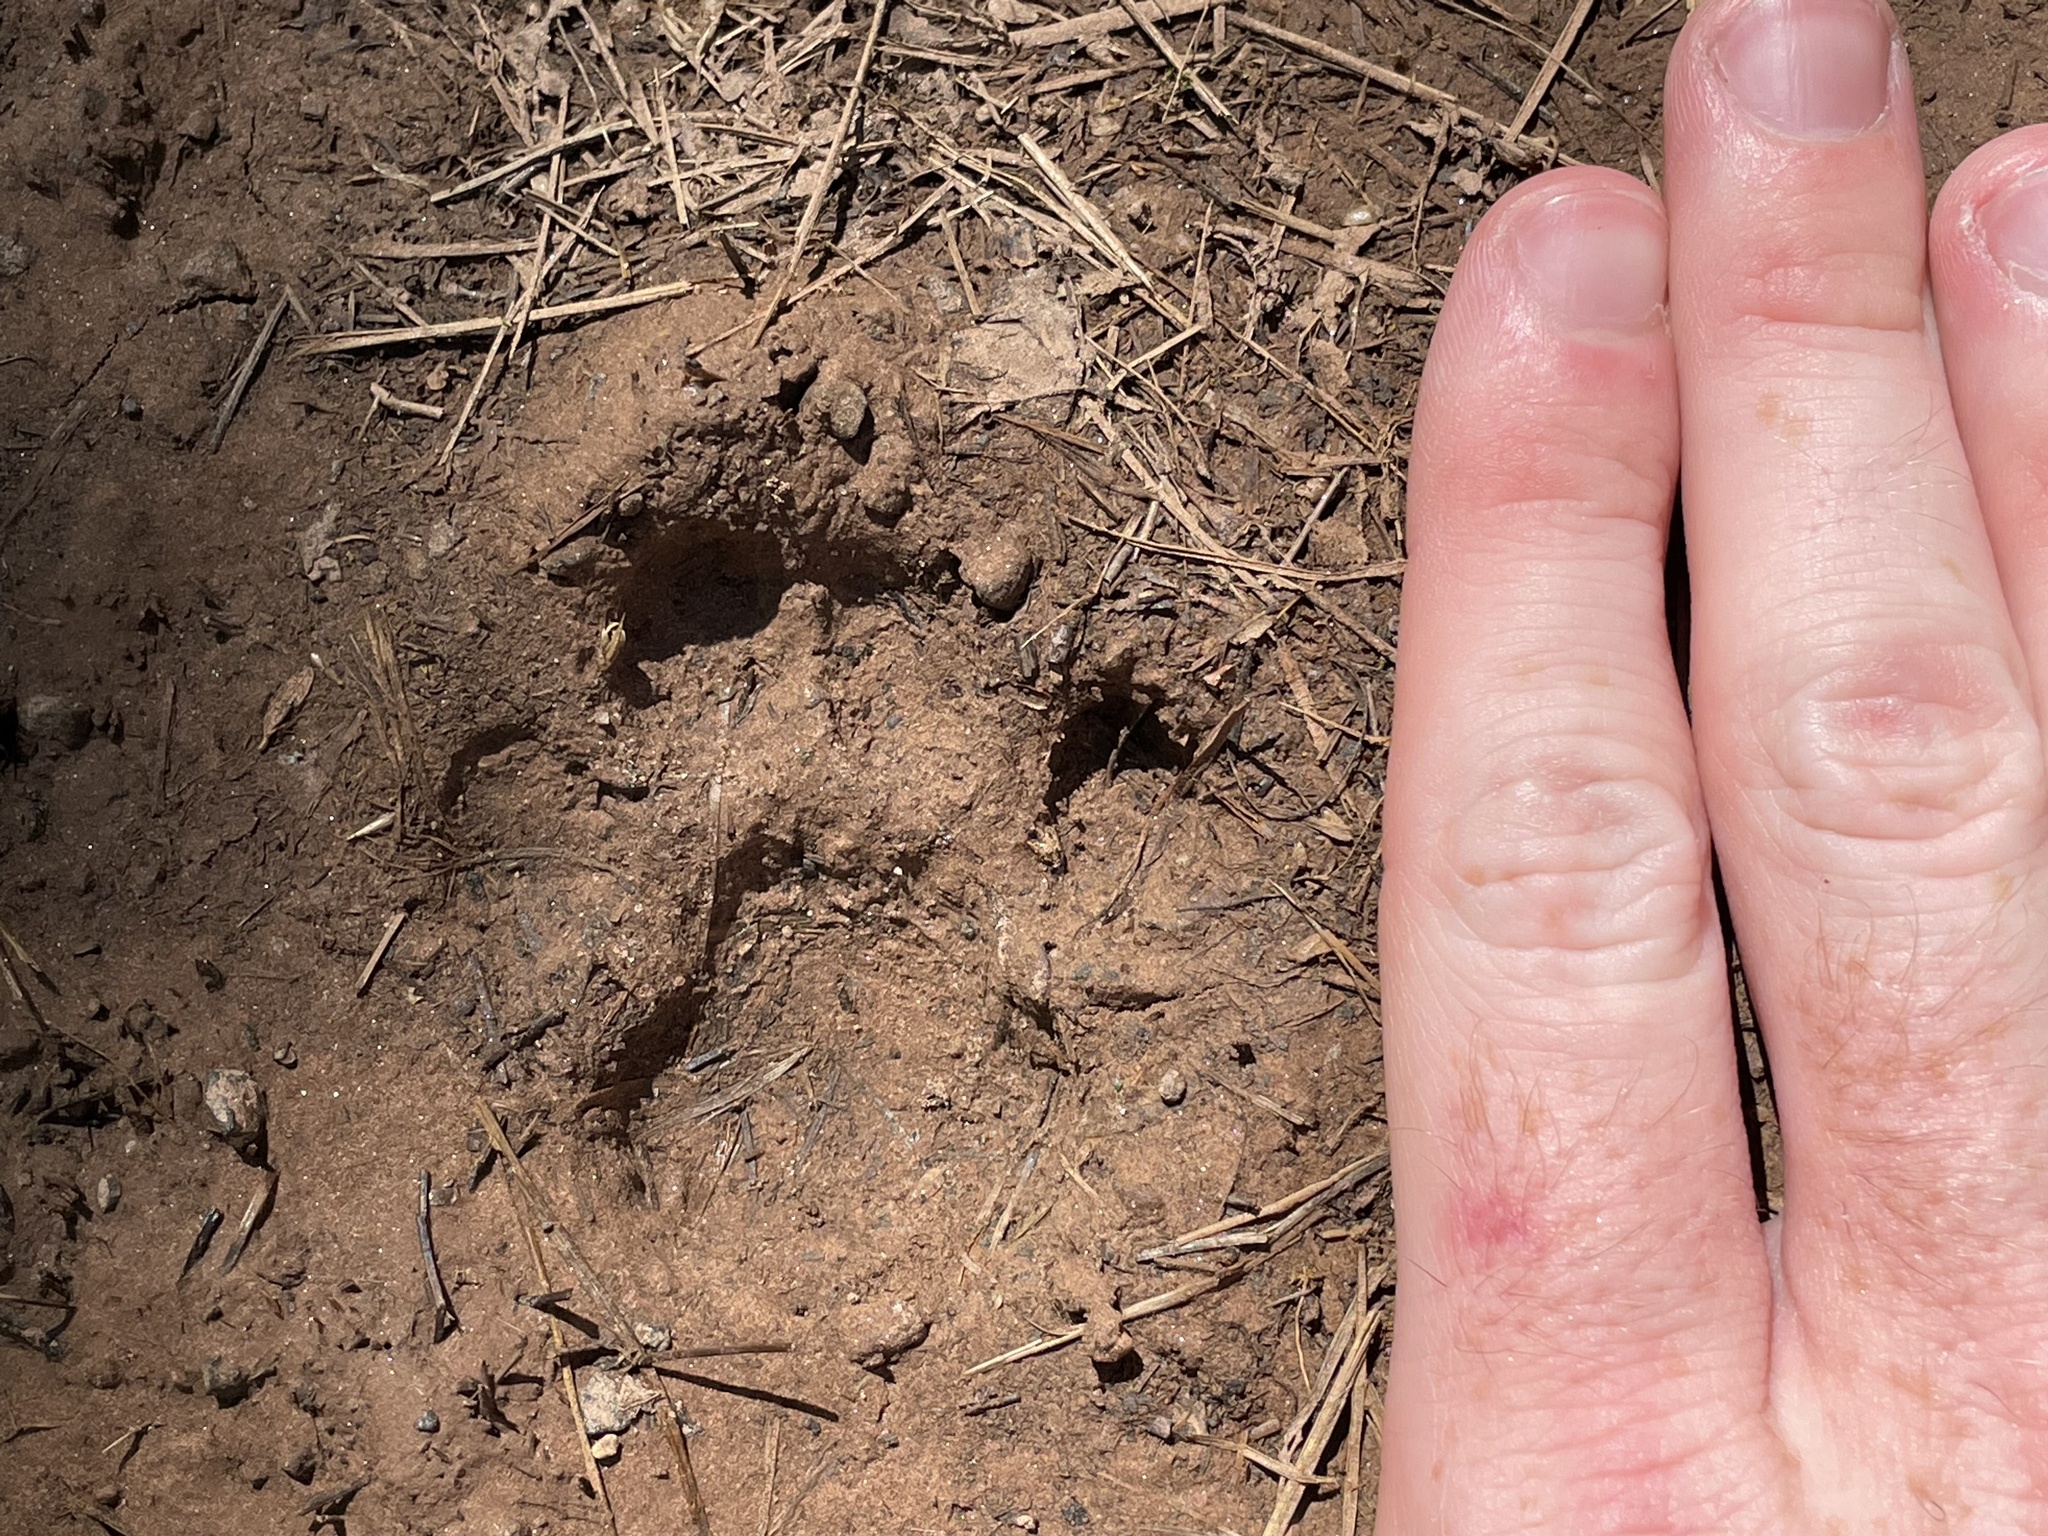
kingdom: Animalia
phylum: Chordata
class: Mammalia
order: Carnivora
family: Felidae
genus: Lynx
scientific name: Lynx rufus
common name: Bobcat
